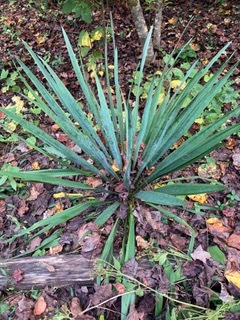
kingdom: Plantae
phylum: Tracheophyta
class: Liliopsida
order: Asparagales
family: Asparagaceae
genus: Yucca
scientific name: Yucca filamentosa
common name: Adam's-needle
